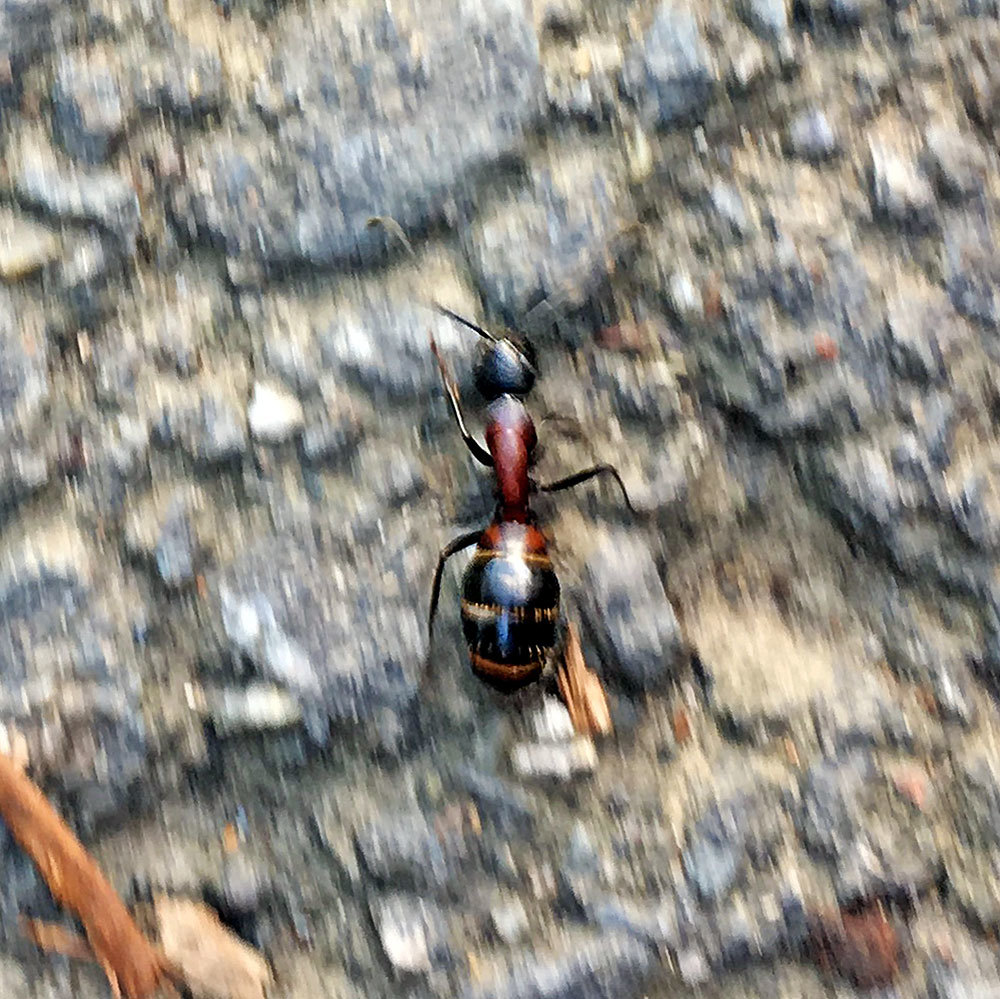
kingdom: Animalia
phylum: Arthropoda
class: Insecta
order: Hymenoptera
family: Formicidae
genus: Camponotus
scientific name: Camponotus obscuripes
